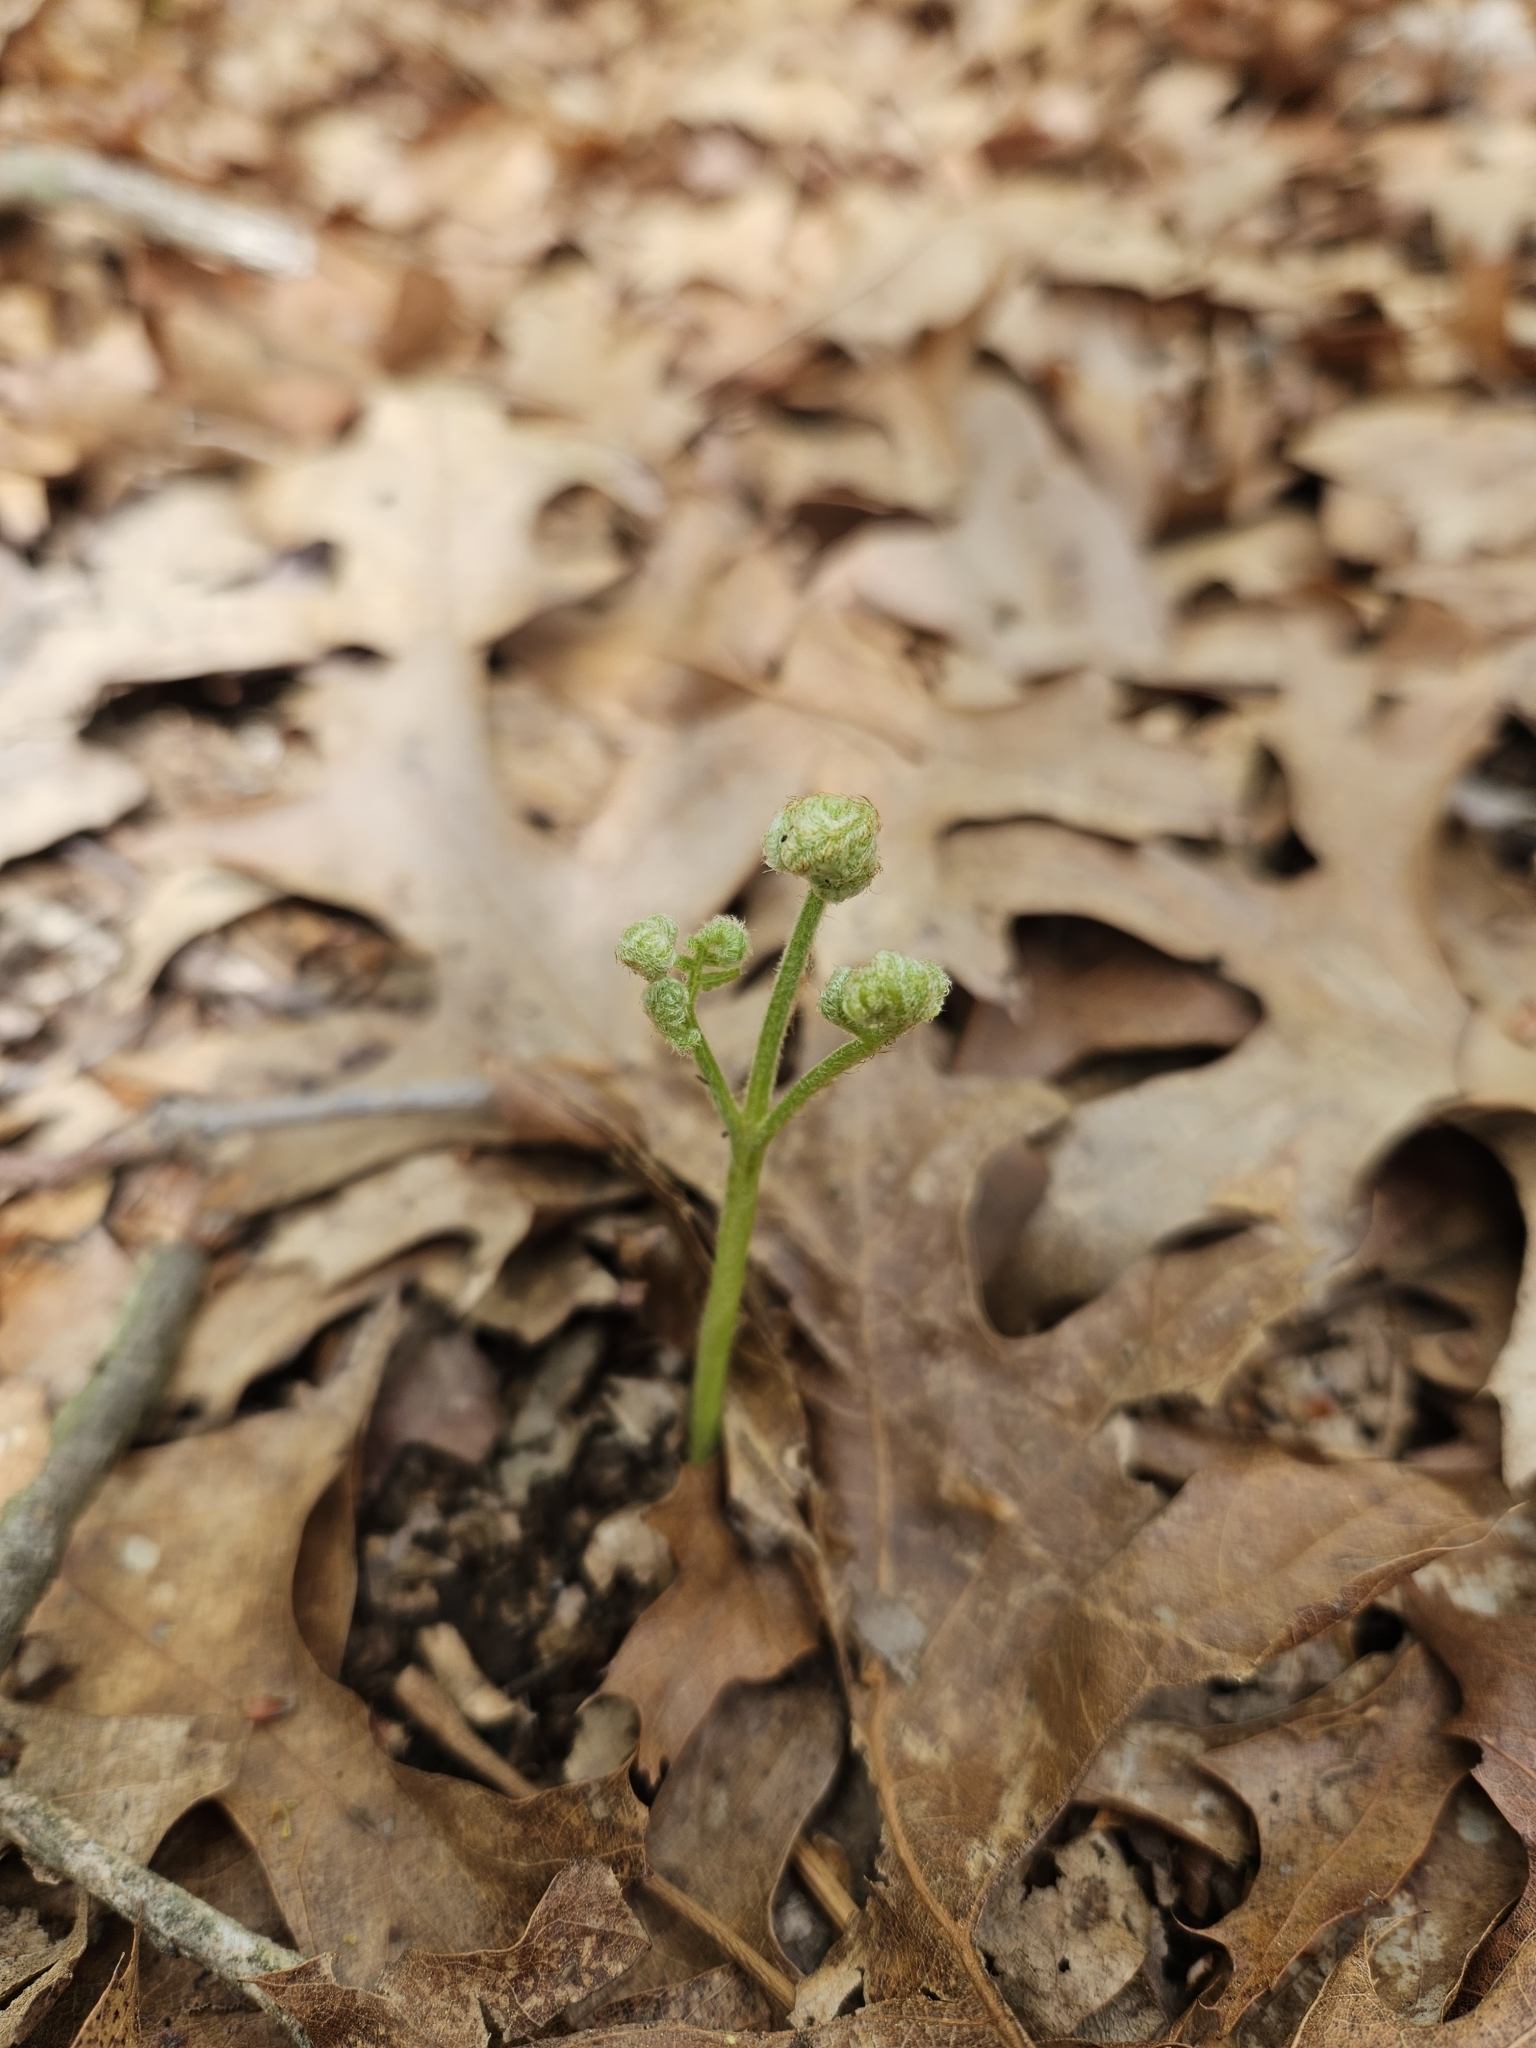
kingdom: Plantae
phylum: Tracheophyta
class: Polypodiopsida
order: Polypodiales
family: Dennstaedtiaceae
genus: Pteridium
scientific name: Pteridium aquilinum
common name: Bracken
